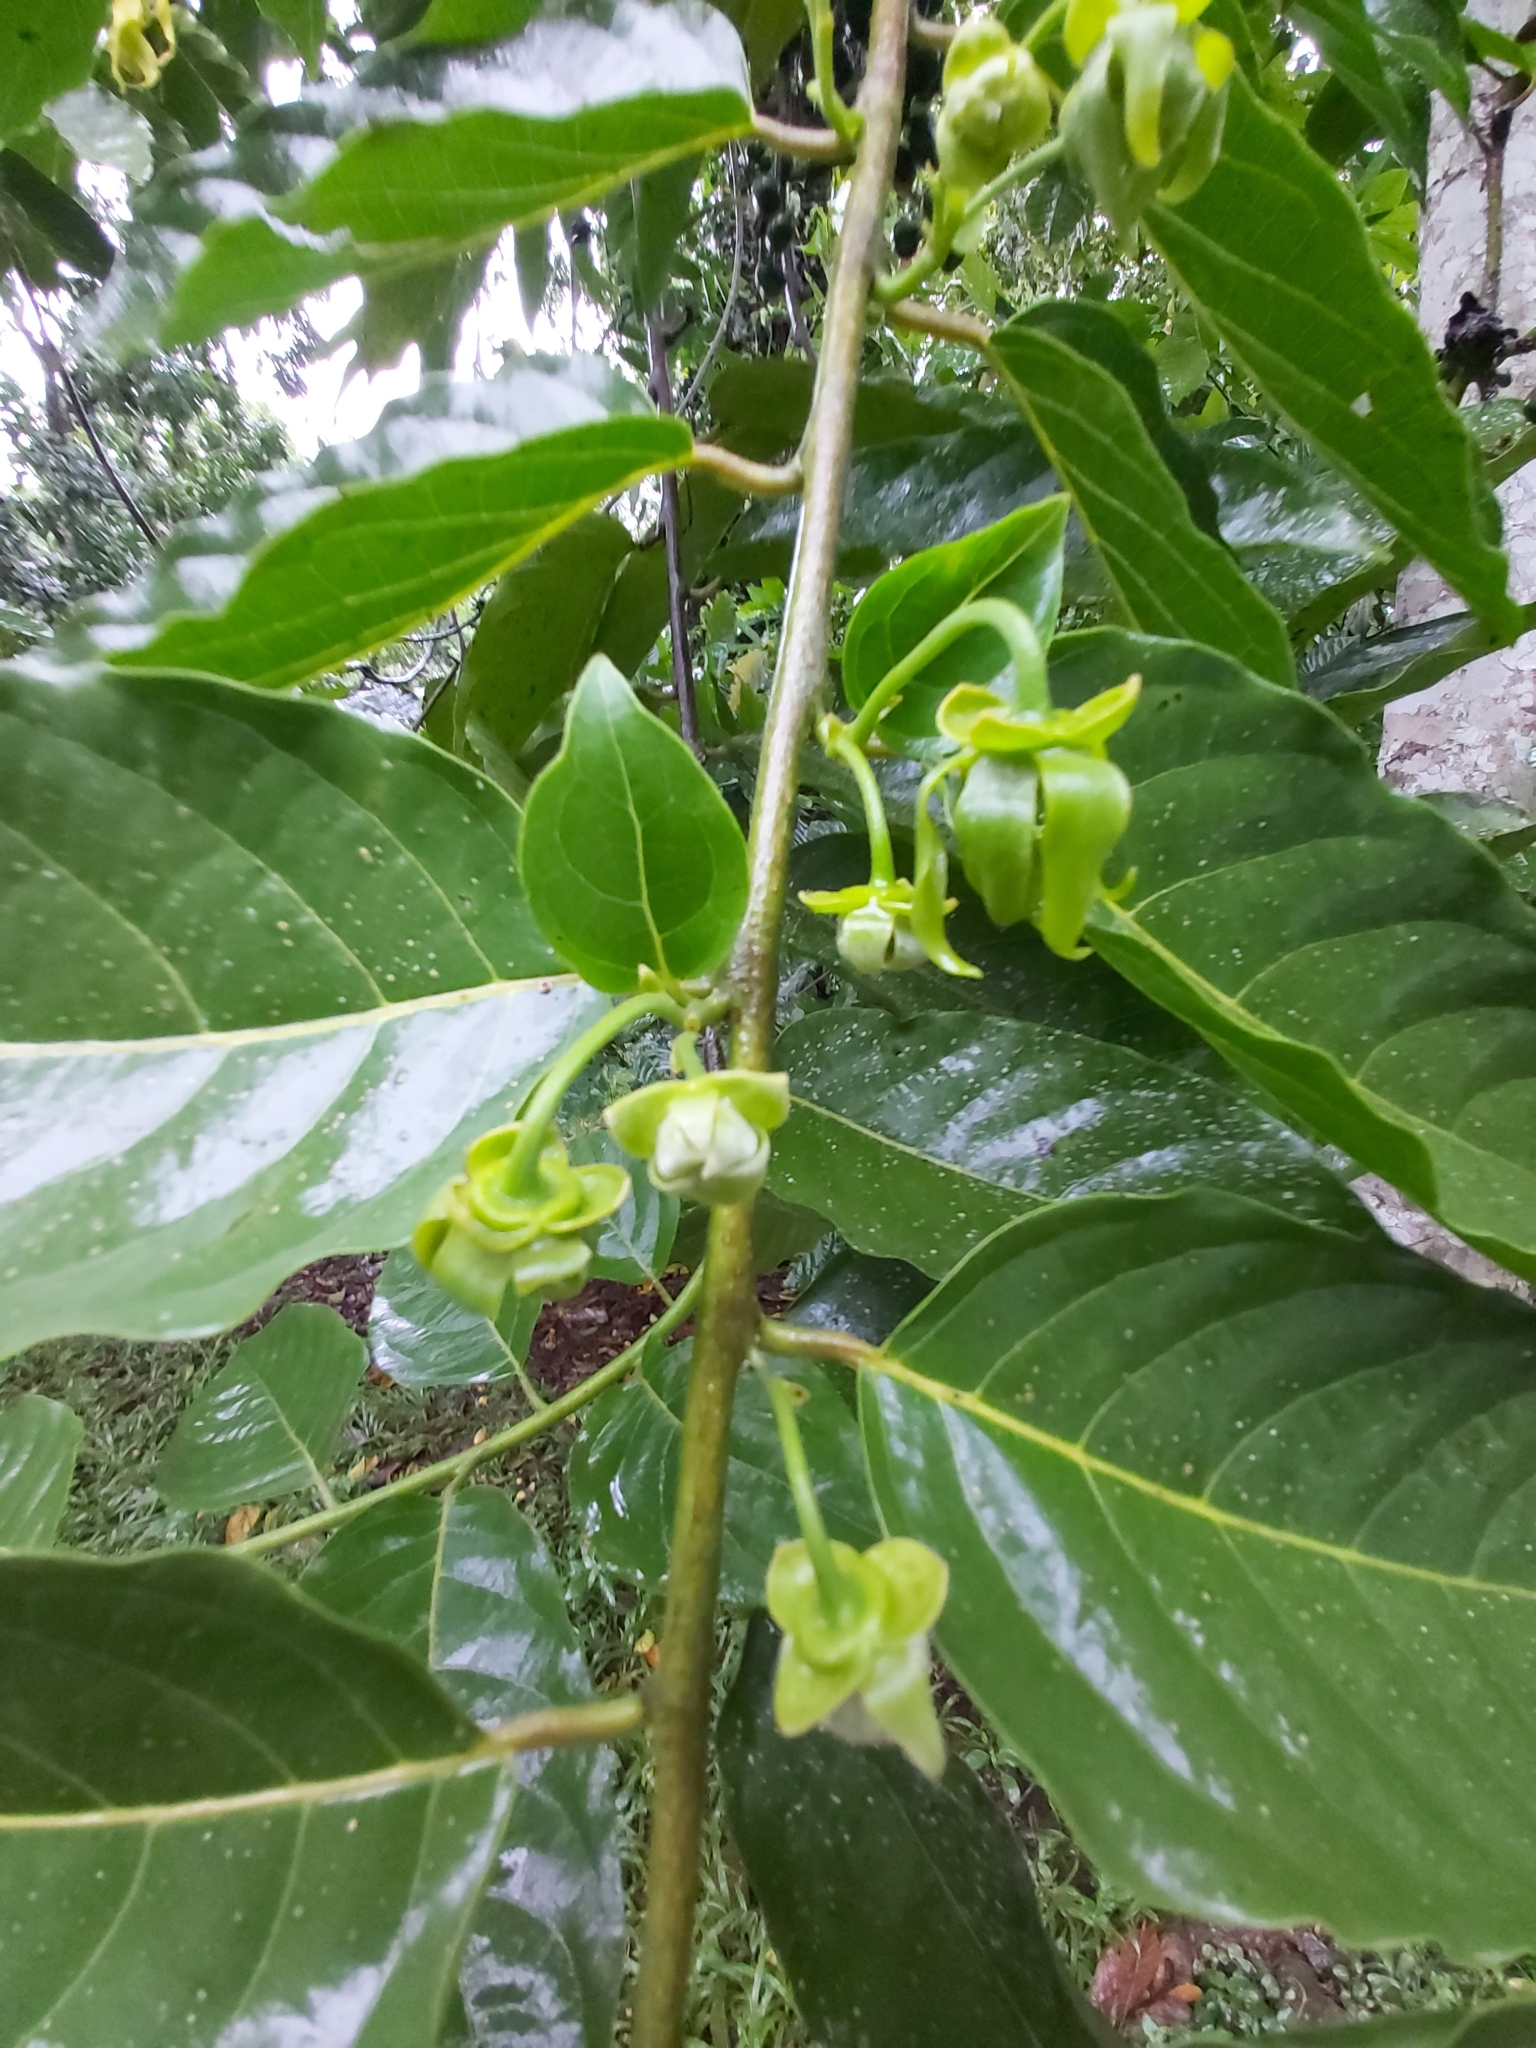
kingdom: Plantae
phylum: Tracheophyta
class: Magnoliopsida
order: Magnoliales
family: Annonaceae
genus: Cananga
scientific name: Cananga odorata
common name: Cananga tree
